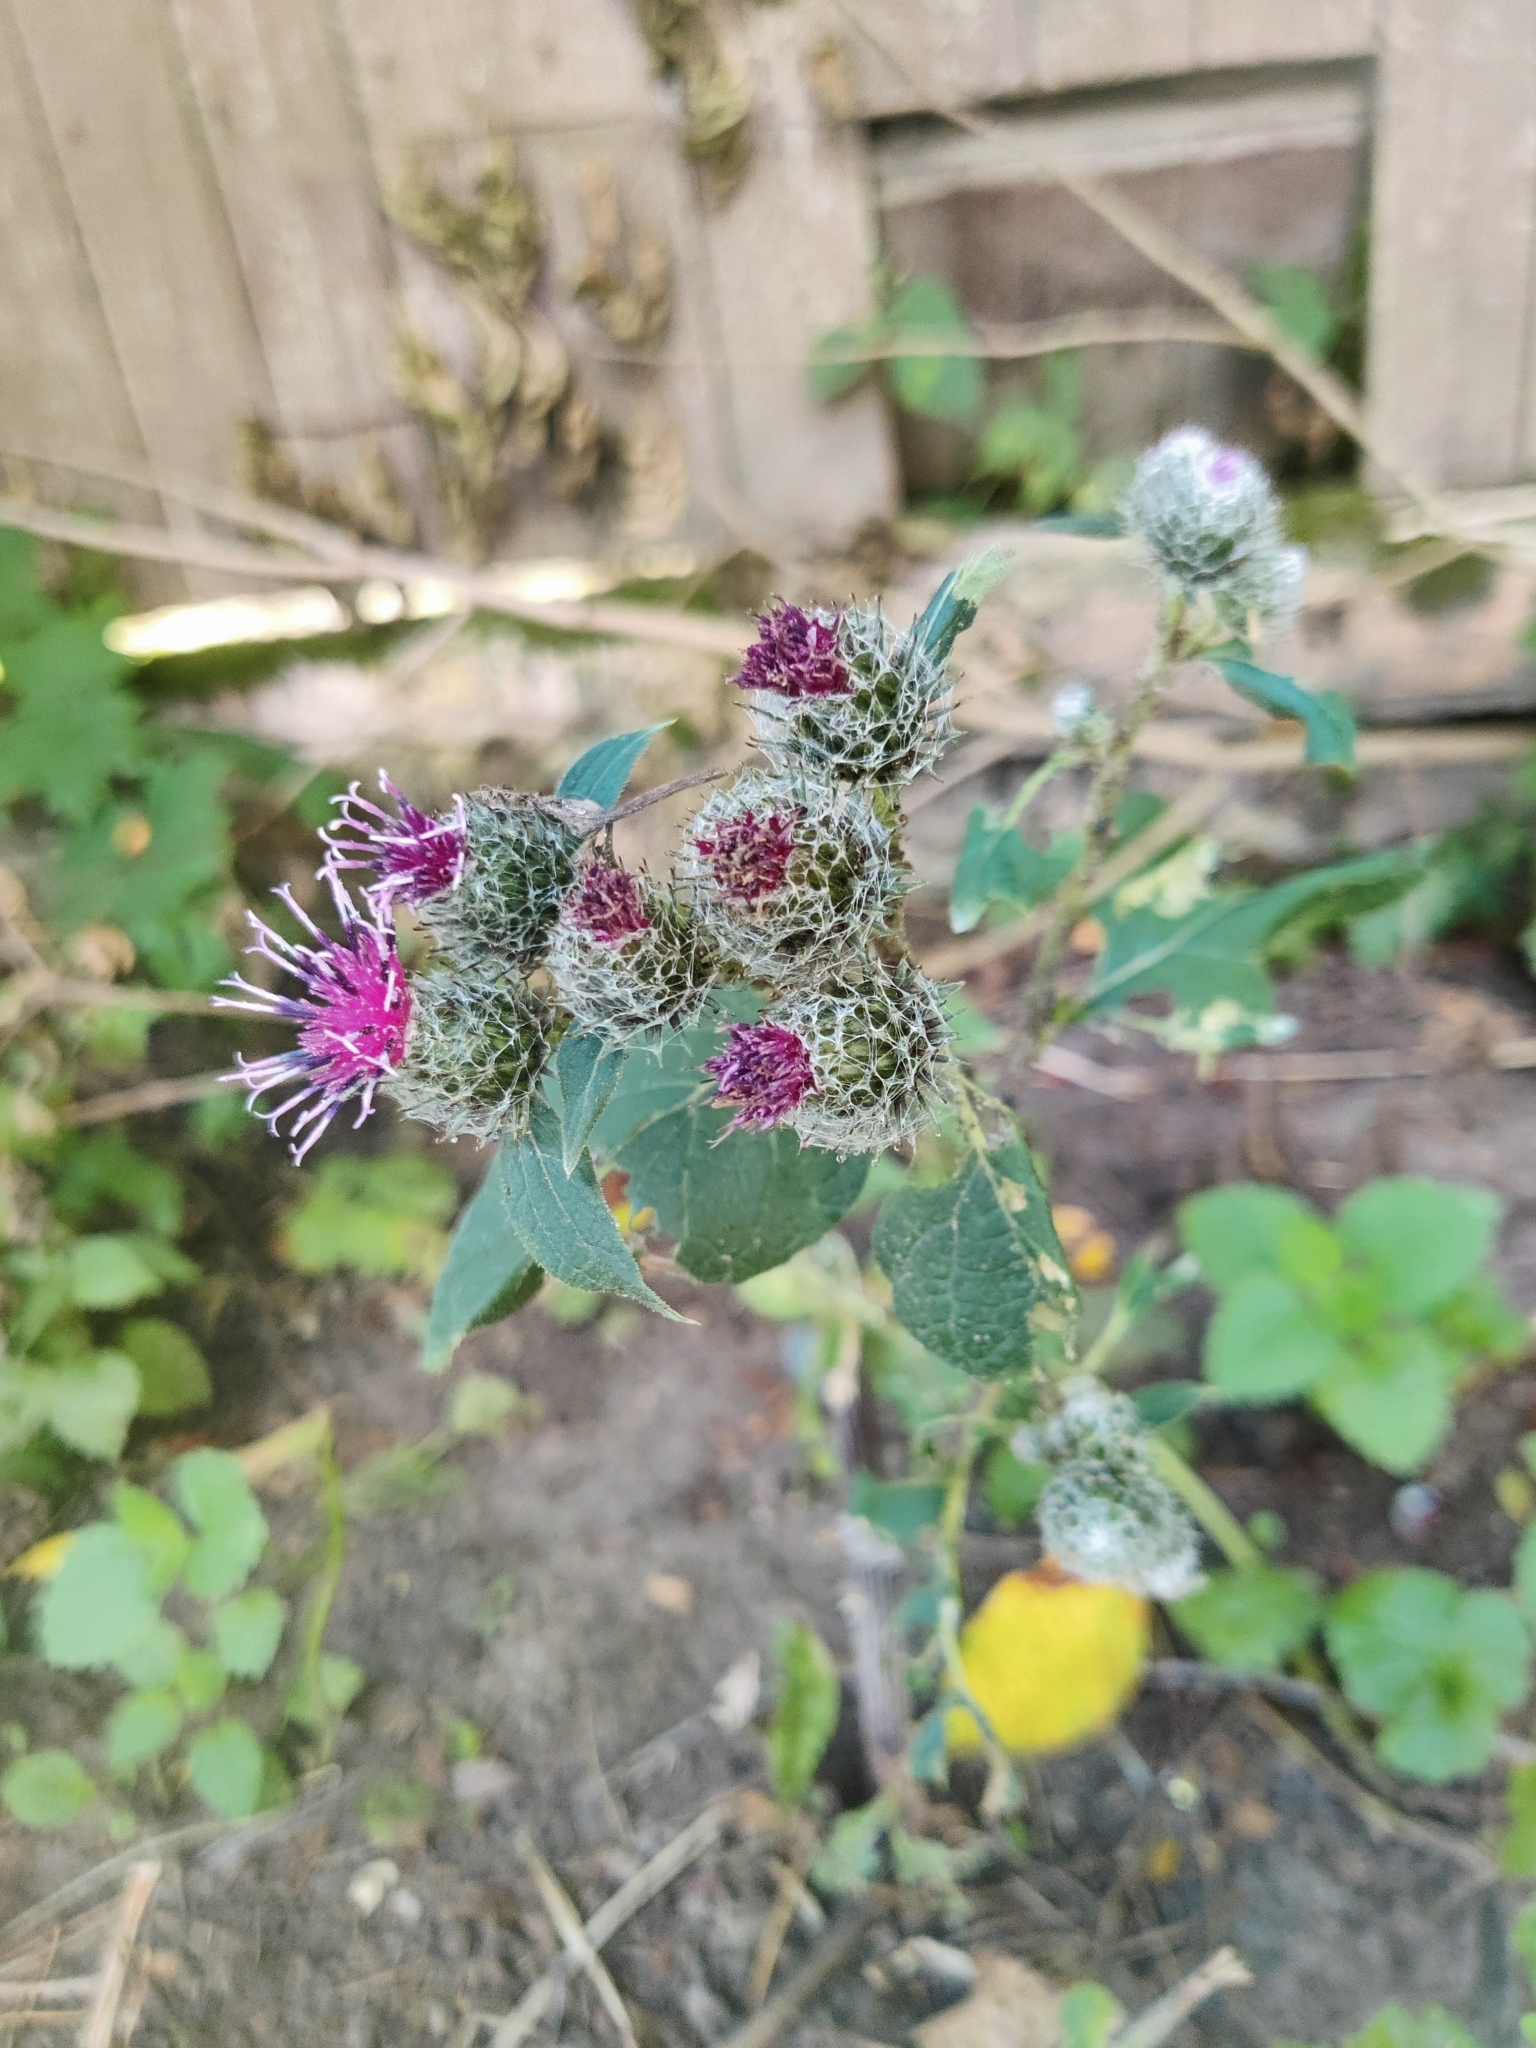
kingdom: Plantae
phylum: Tracheophyta
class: Magnoliopsida
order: Asterales
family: Asteraceae
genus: Arctium
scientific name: Arctium tomentosum
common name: Woolly burdock
